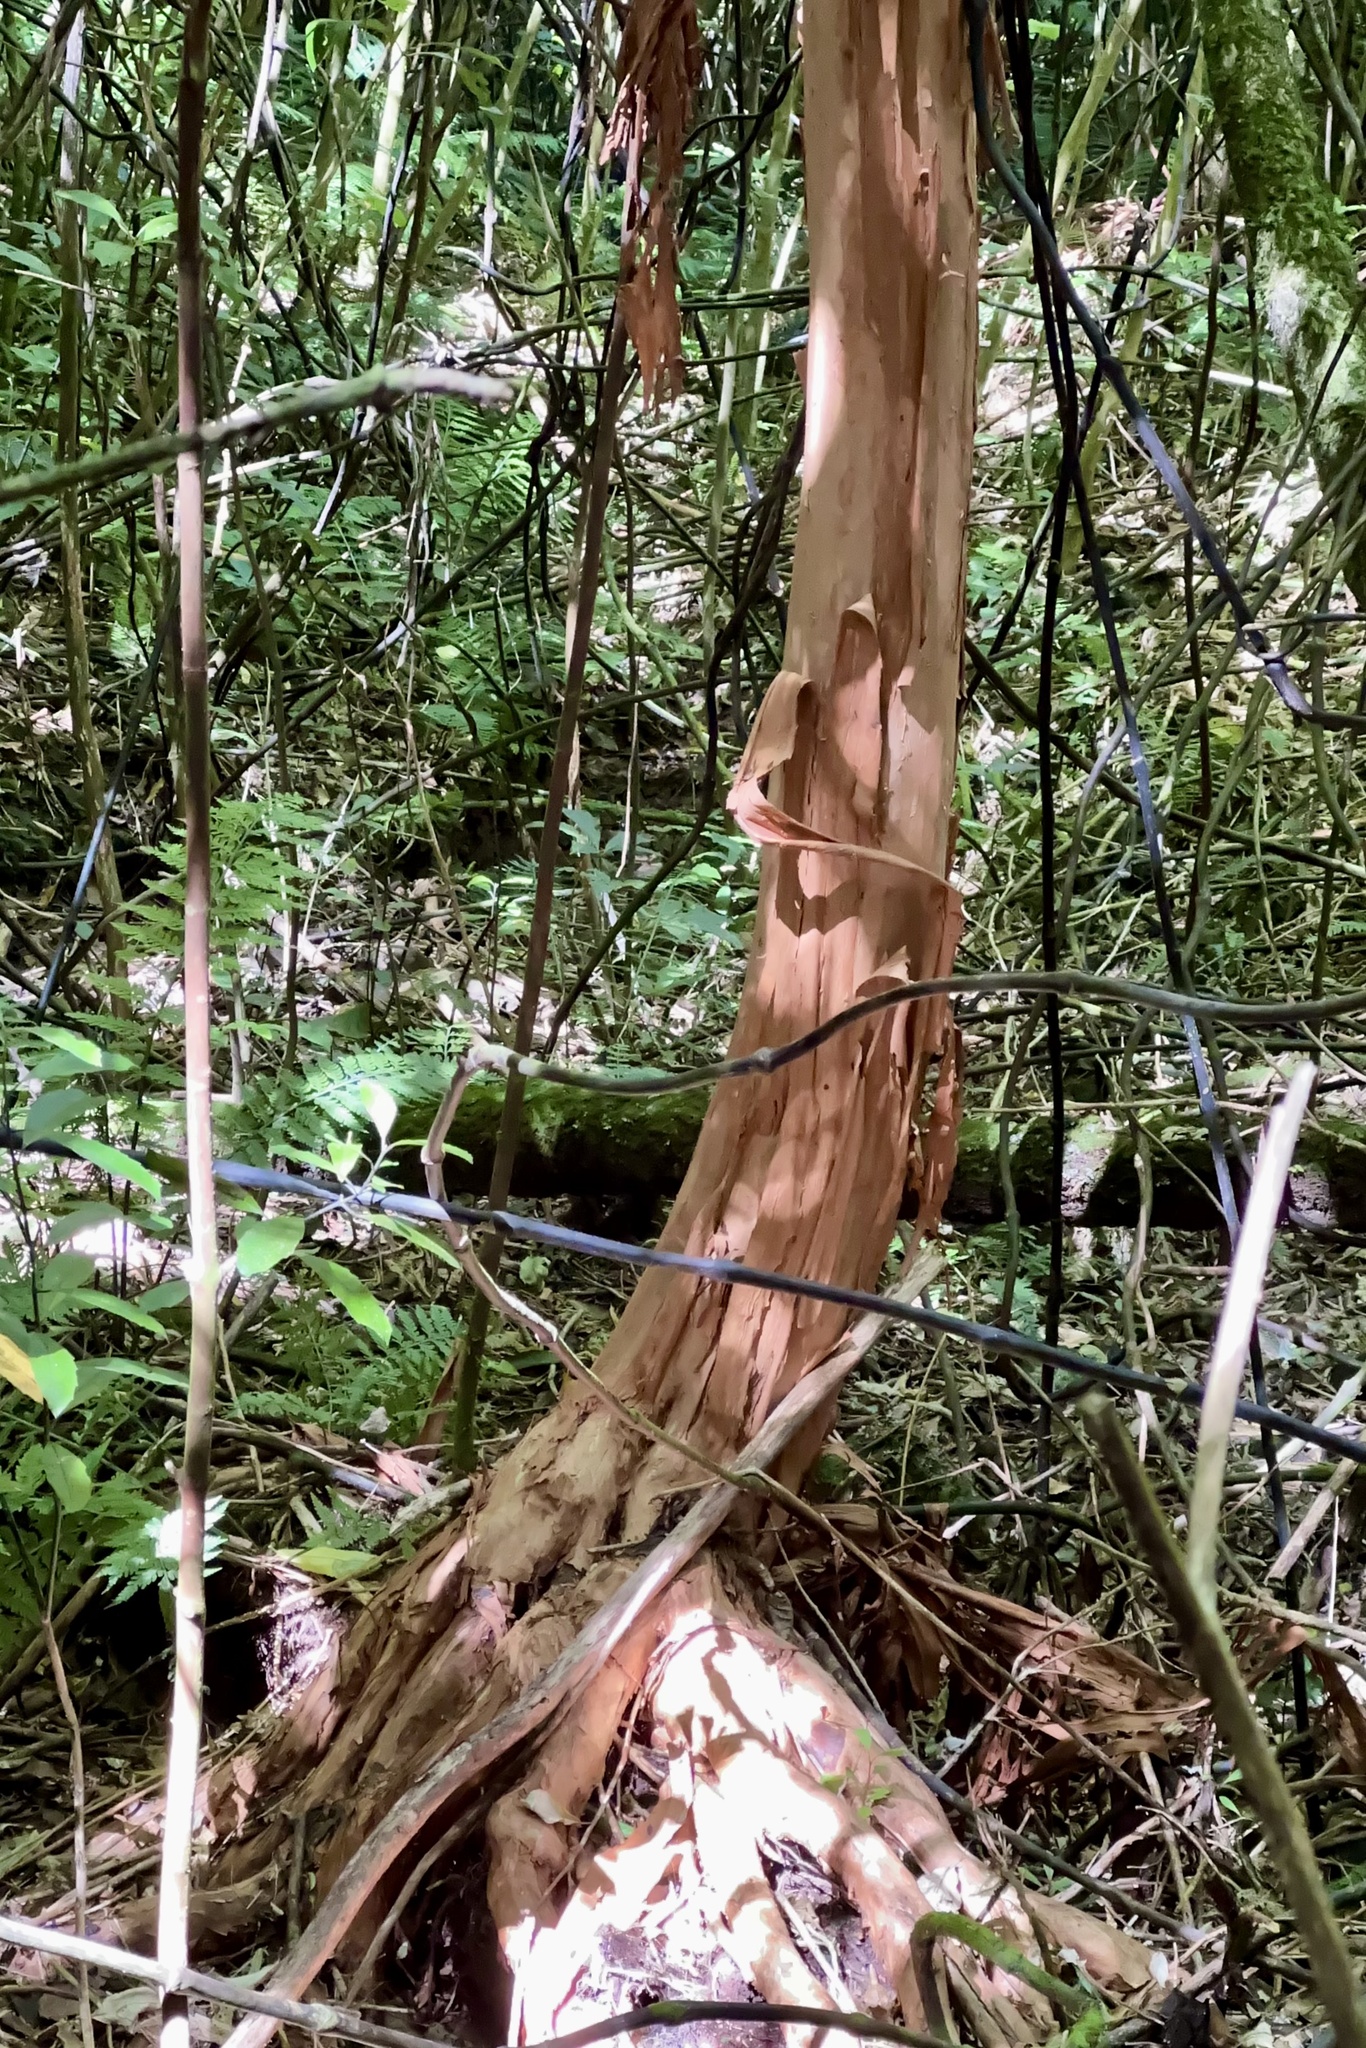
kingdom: Plantae
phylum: Tracheophyta
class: Magnoliopsida
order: Myrtales
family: Onagraceae
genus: Fuchsia
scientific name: Fuchsia excorticata
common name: Tree fuchsia
